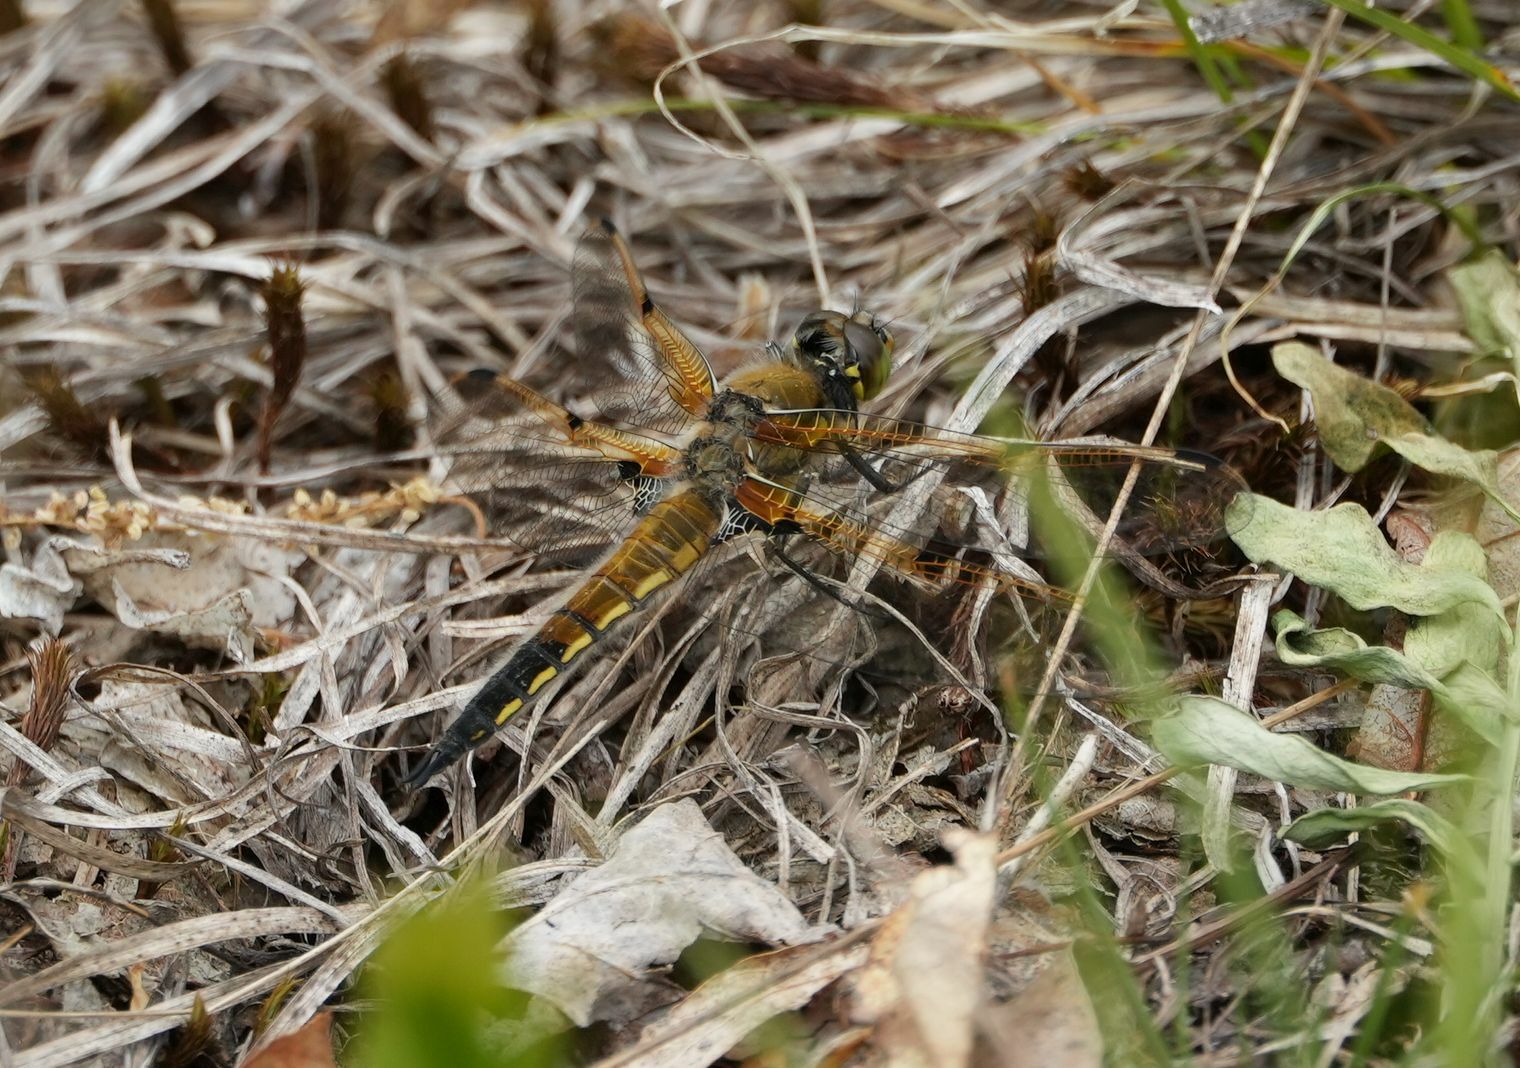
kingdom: Animalia
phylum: Arthropoda
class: Insecta
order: Odonata
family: Libellulidae
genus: Libellula
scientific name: Libellula quadrimaculata
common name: Four-spotted chaser
